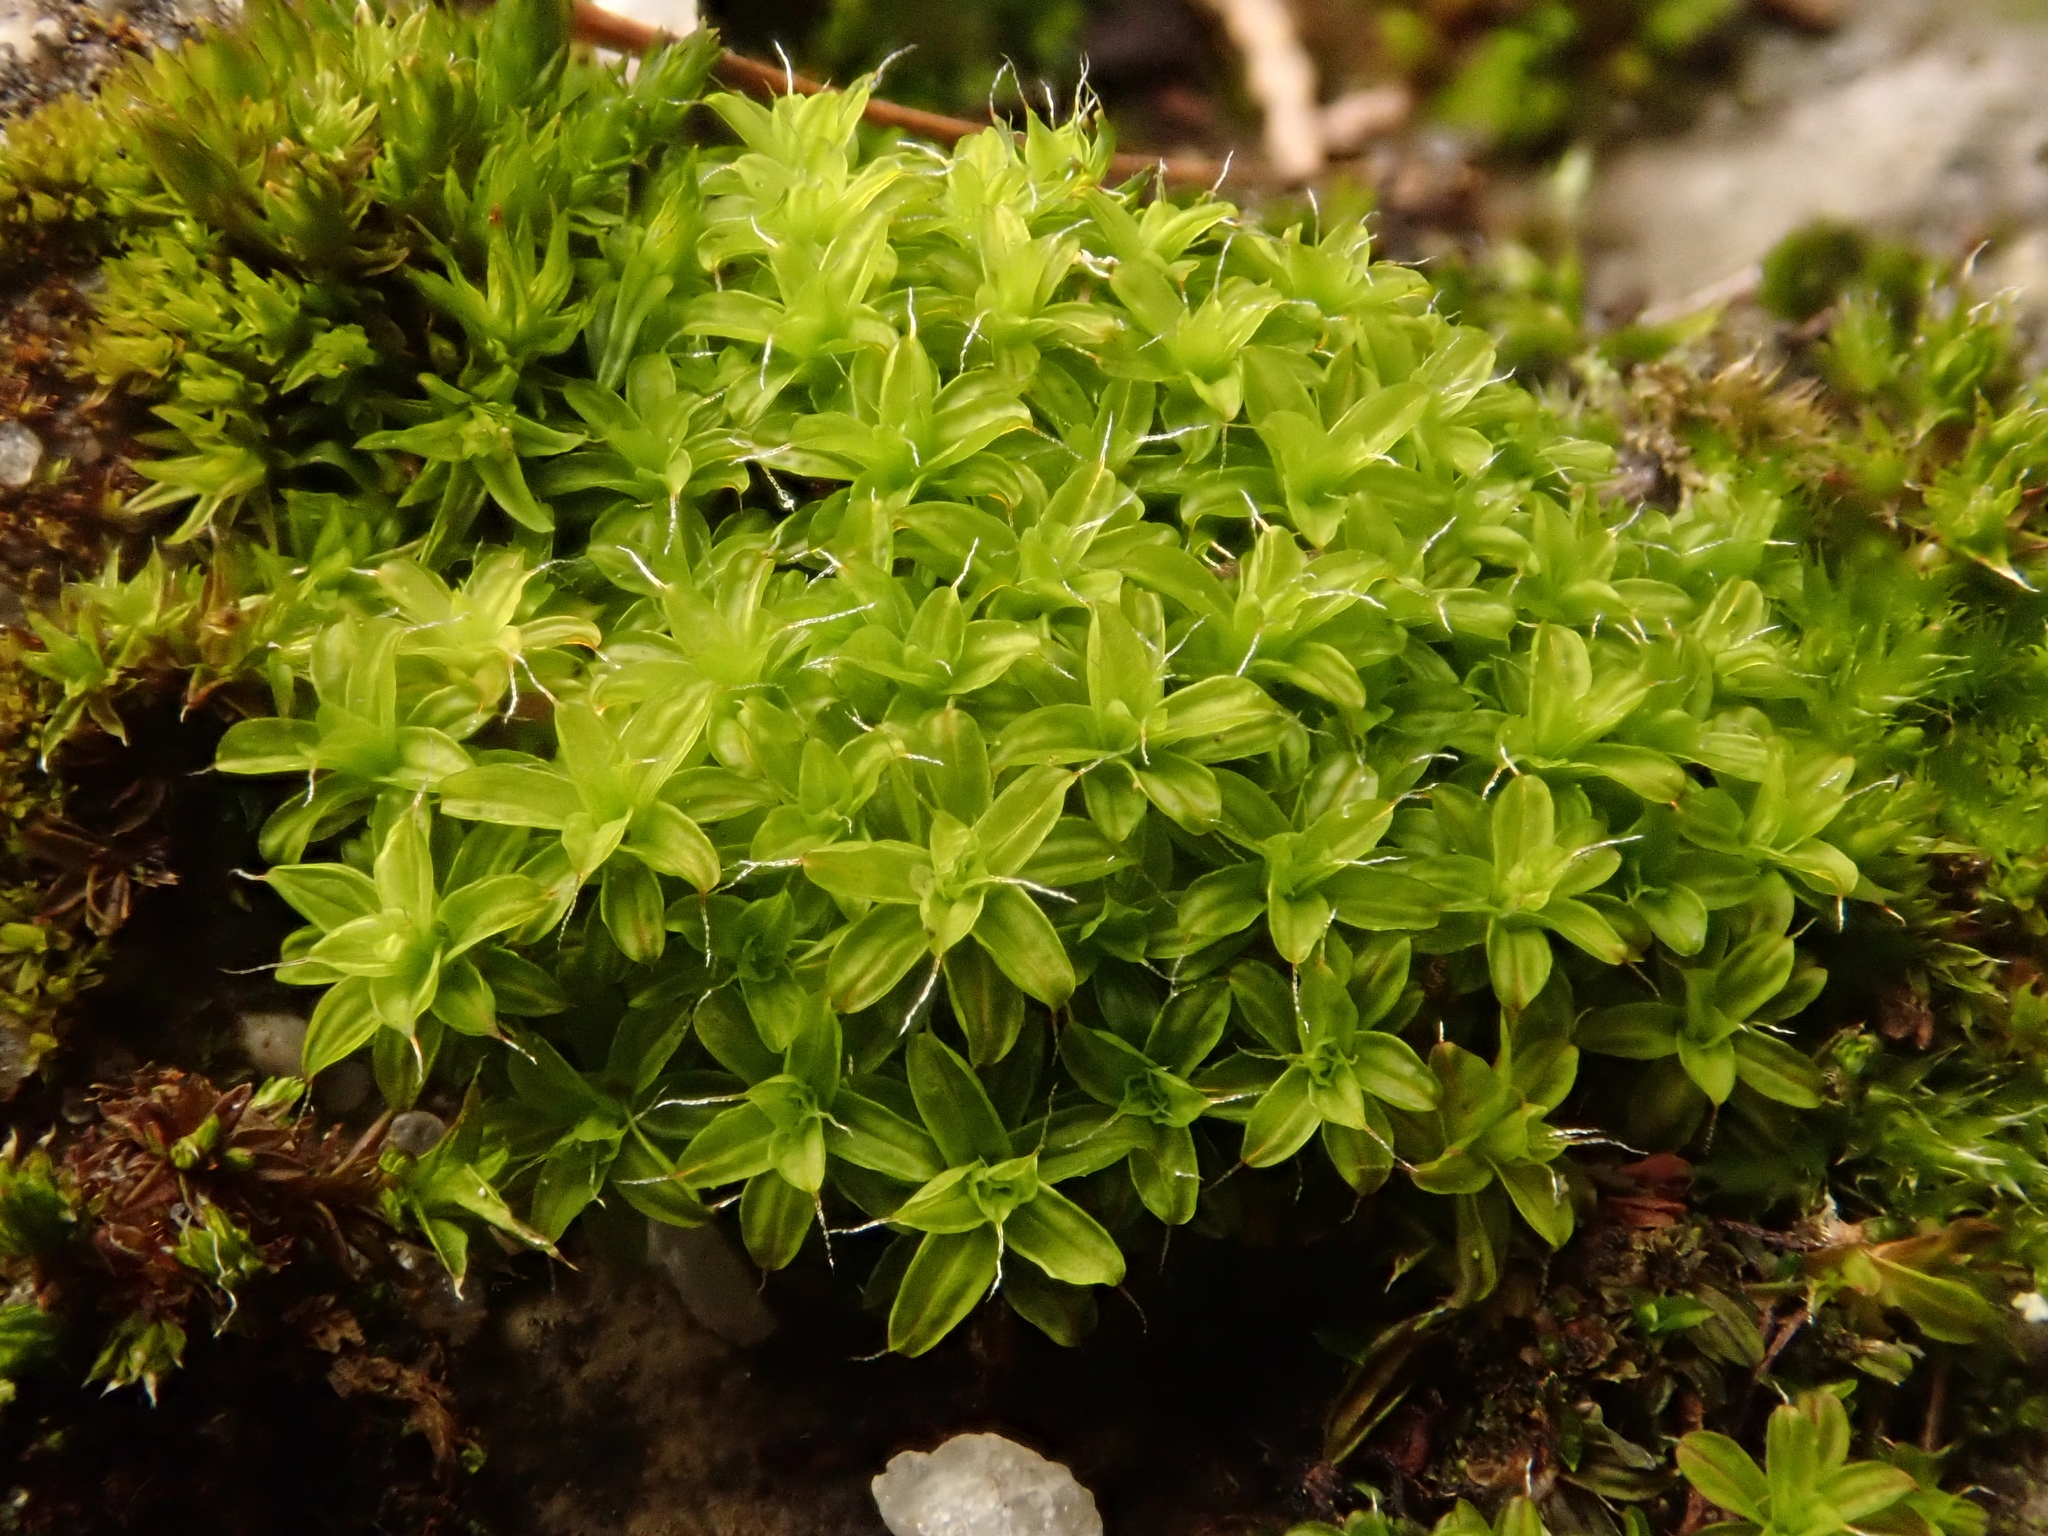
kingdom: Plantae
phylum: Bryophyta
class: Bryopsida
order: Pottiales
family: Pottiaceae
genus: Syntrichia
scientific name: Syntrichia ruralis
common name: Sidewalk screw moss
